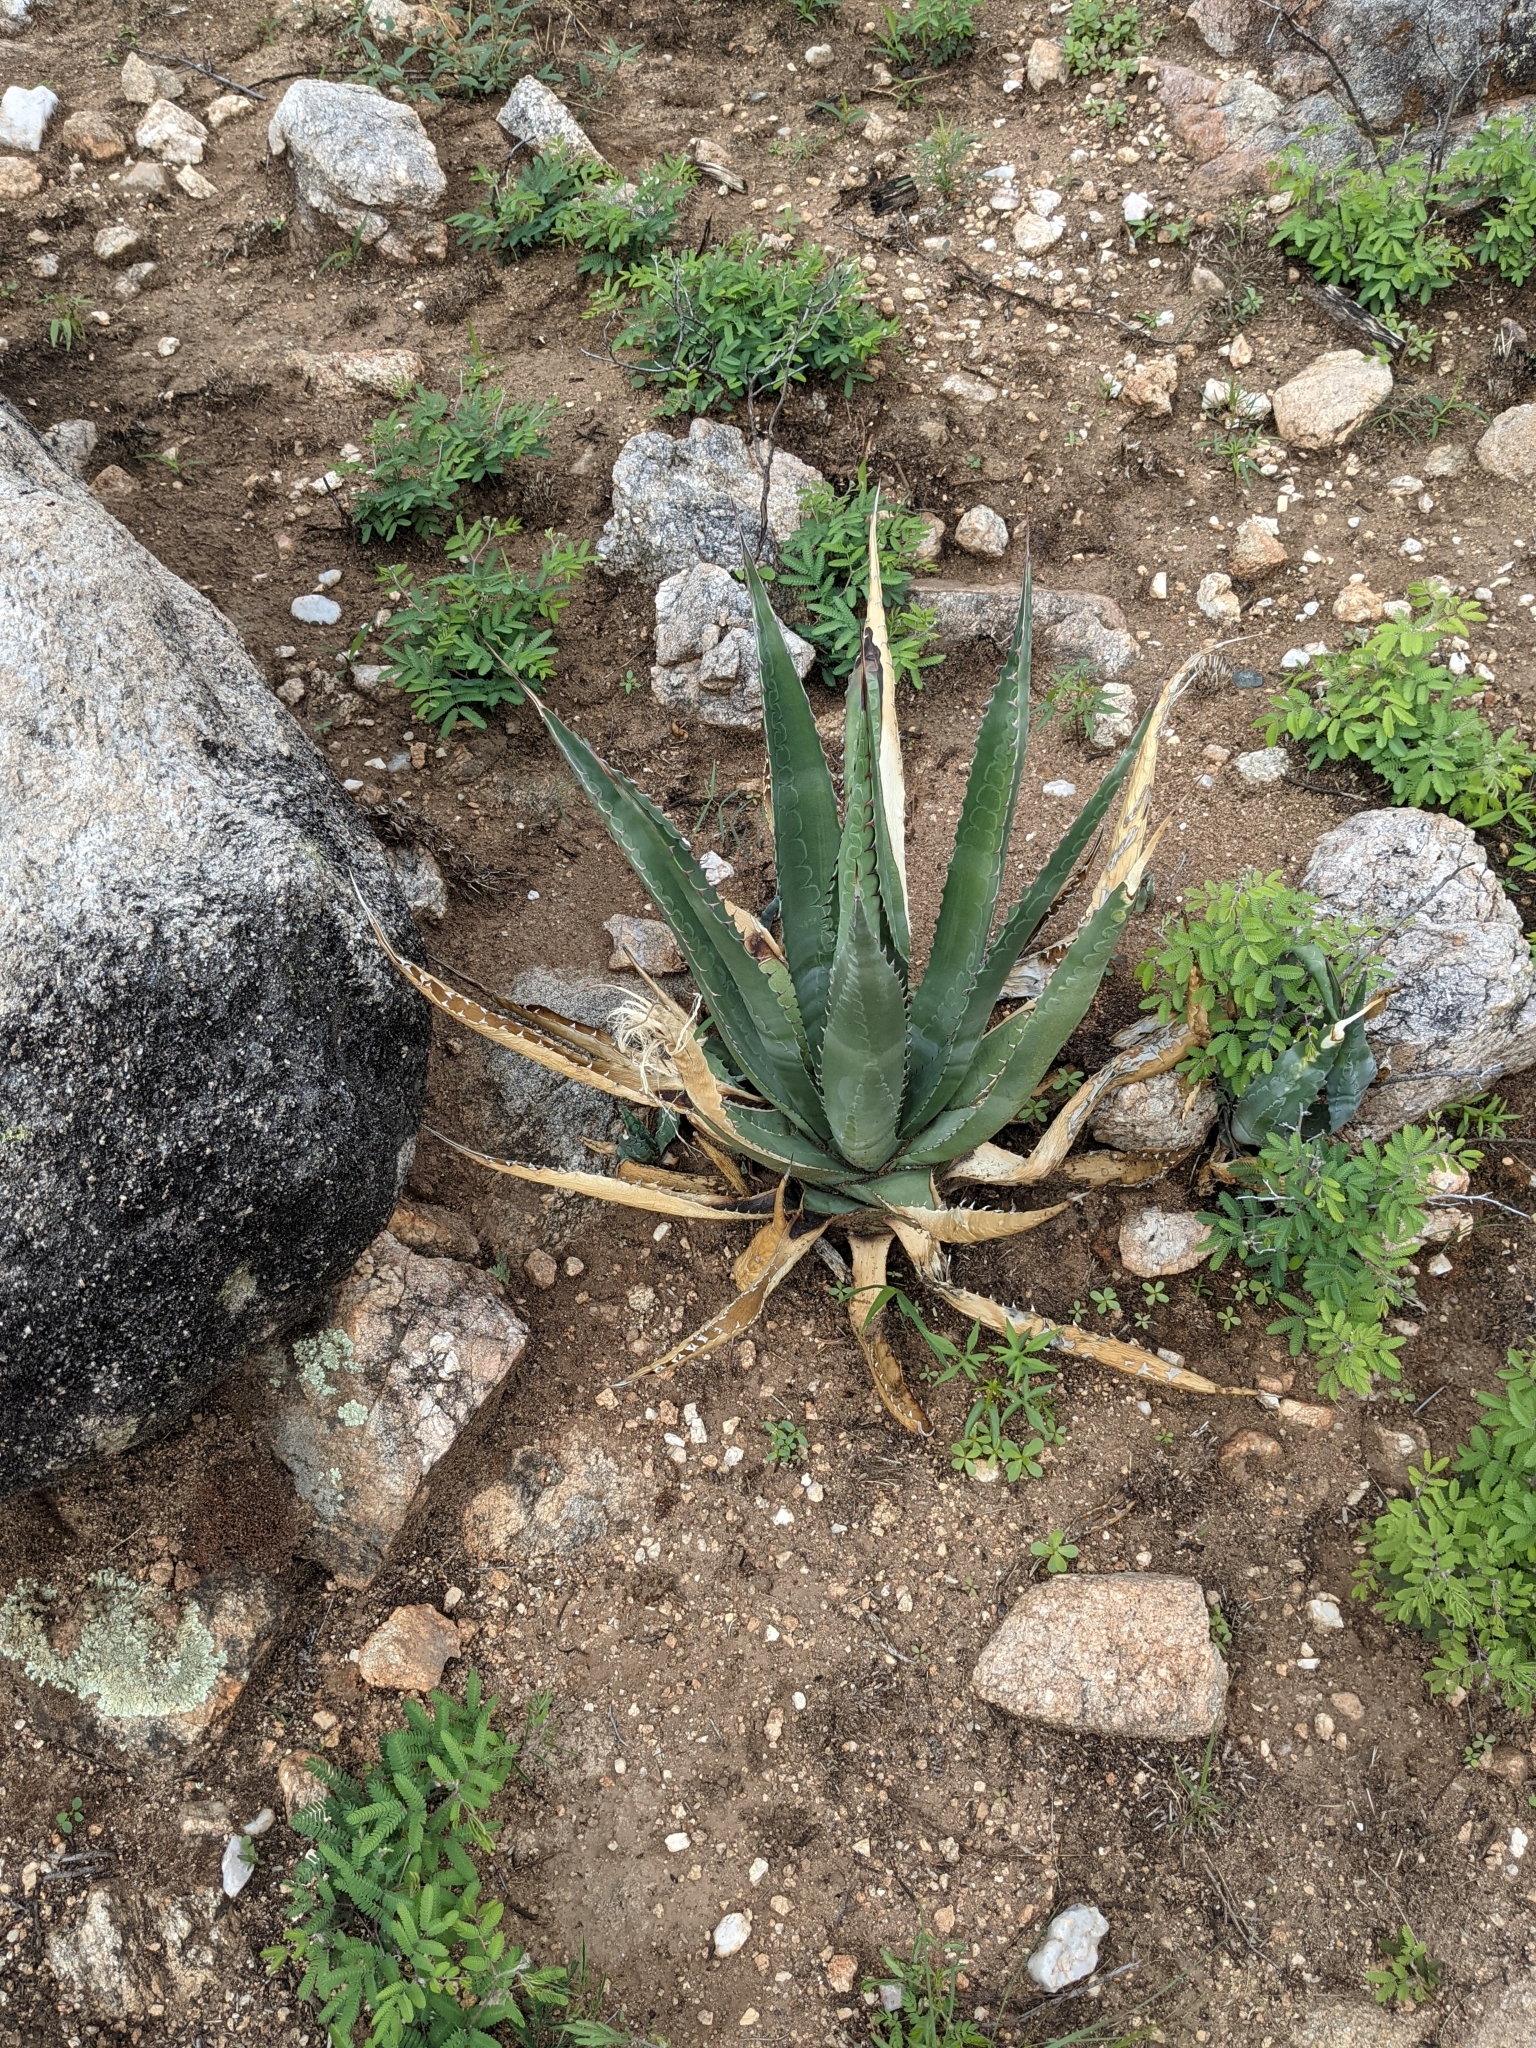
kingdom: Plantae
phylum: Tracheophyta
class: Liliopsida
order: Asparagales
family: Asparagaceae
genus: Agave
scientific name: Agave palmeri
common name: Palmer agave
